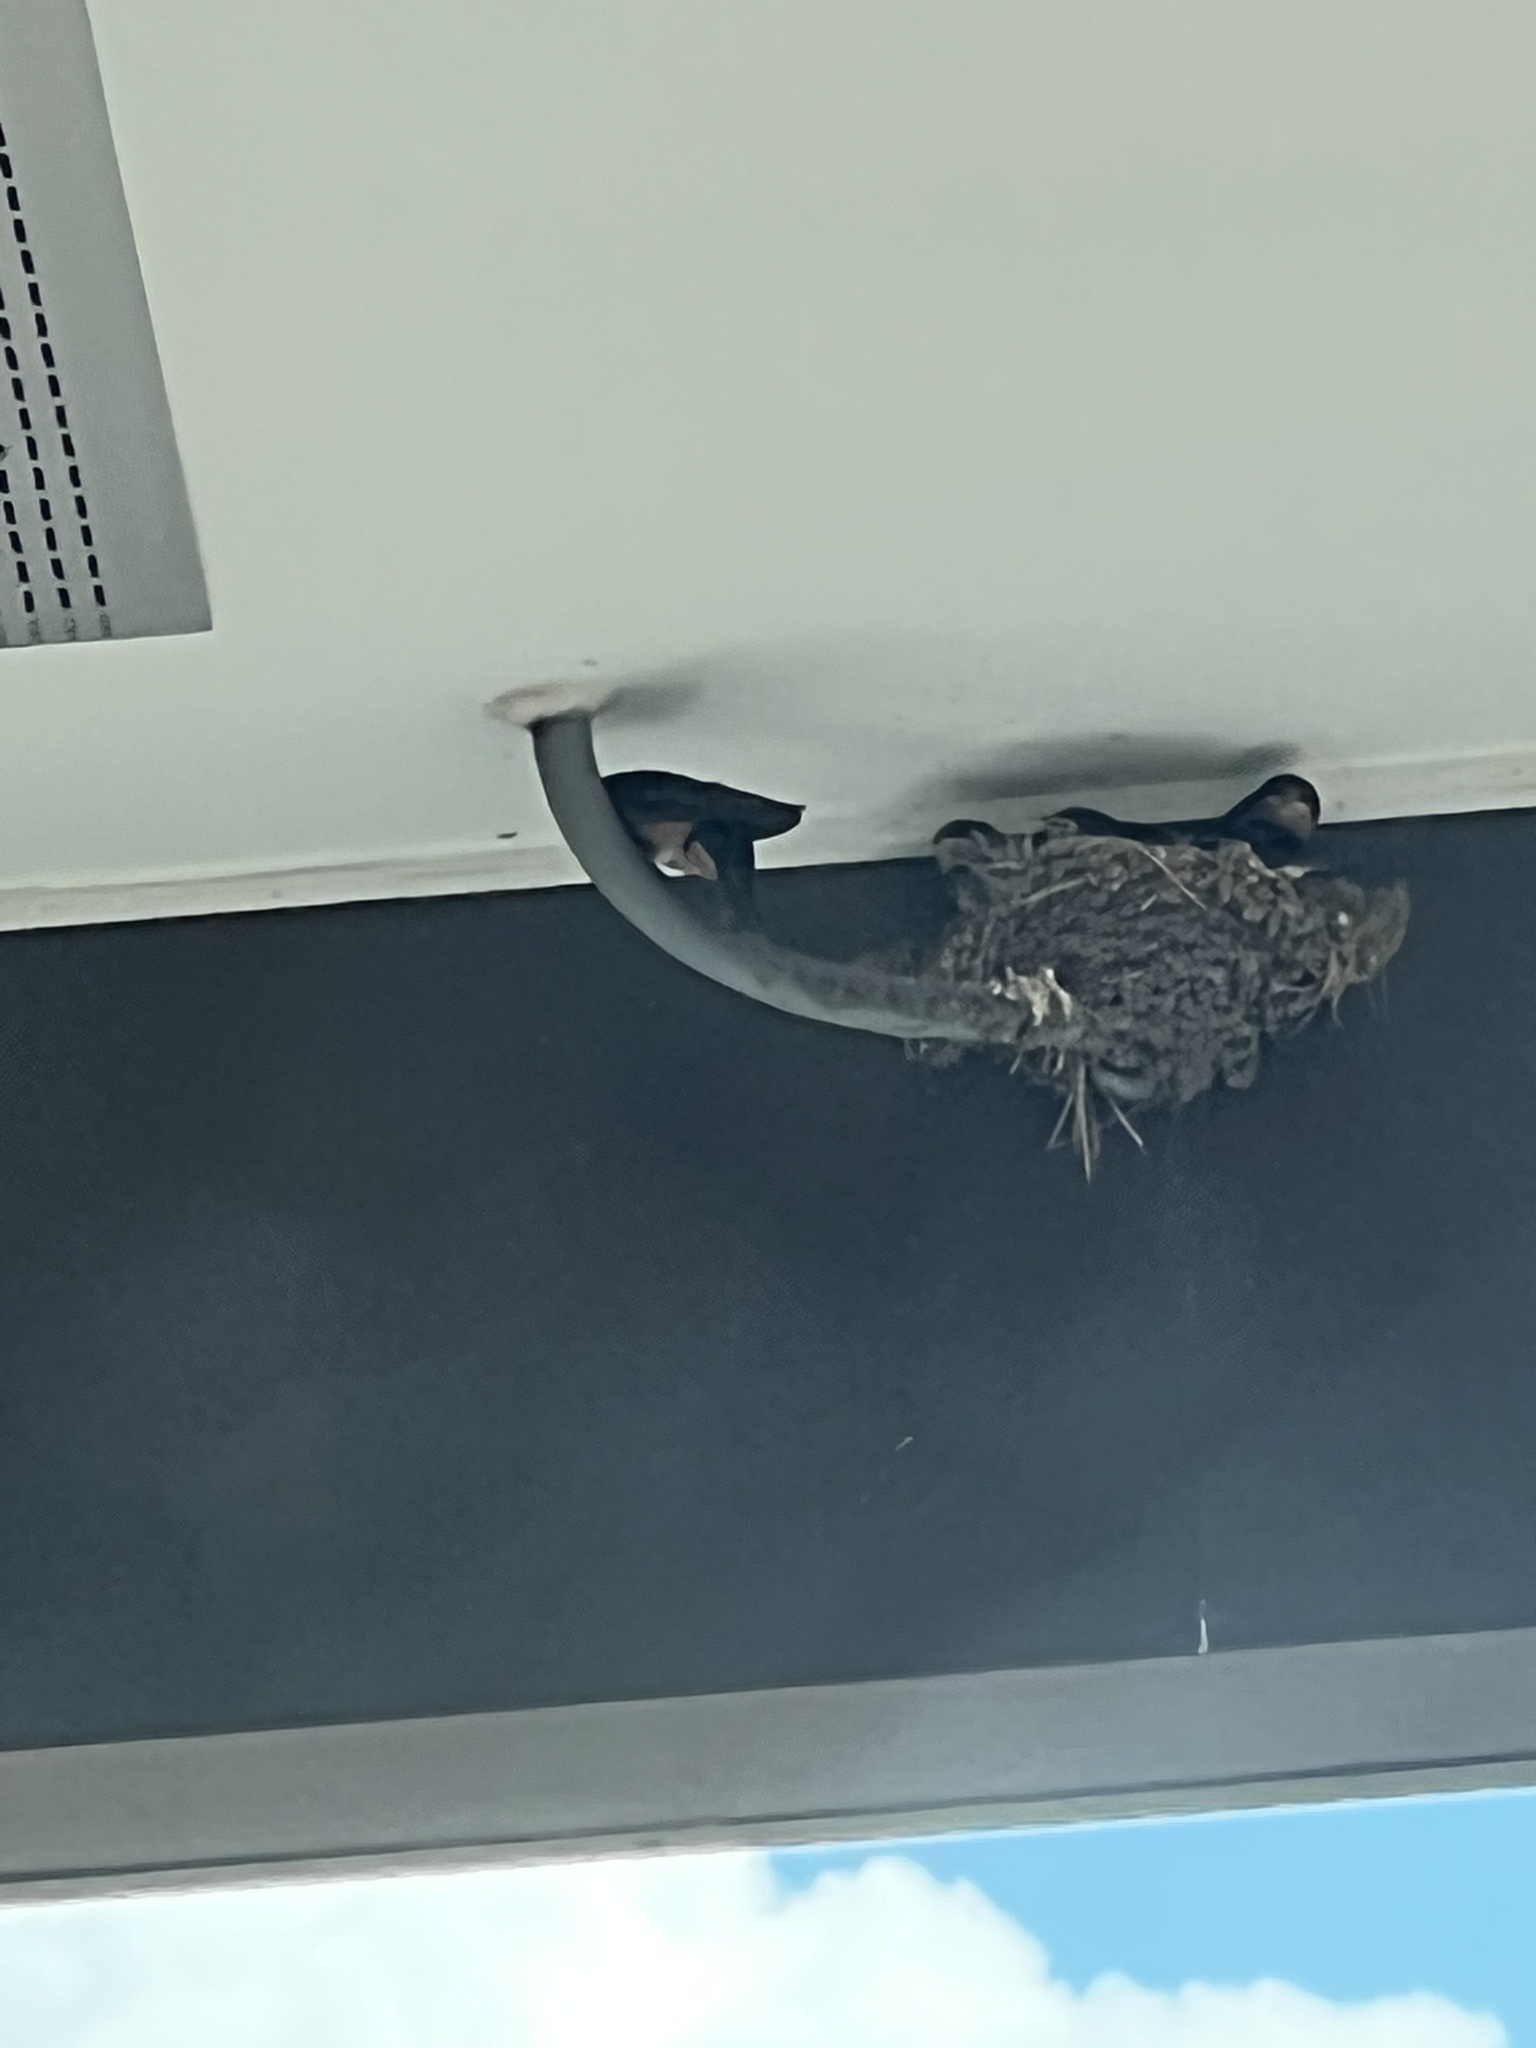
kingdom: Animalia
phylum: Chordata
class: Aves
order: Passeriformes
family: Hirundinidae
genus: Hirundo
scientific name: Hirundo rustica
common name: Barn swallow
